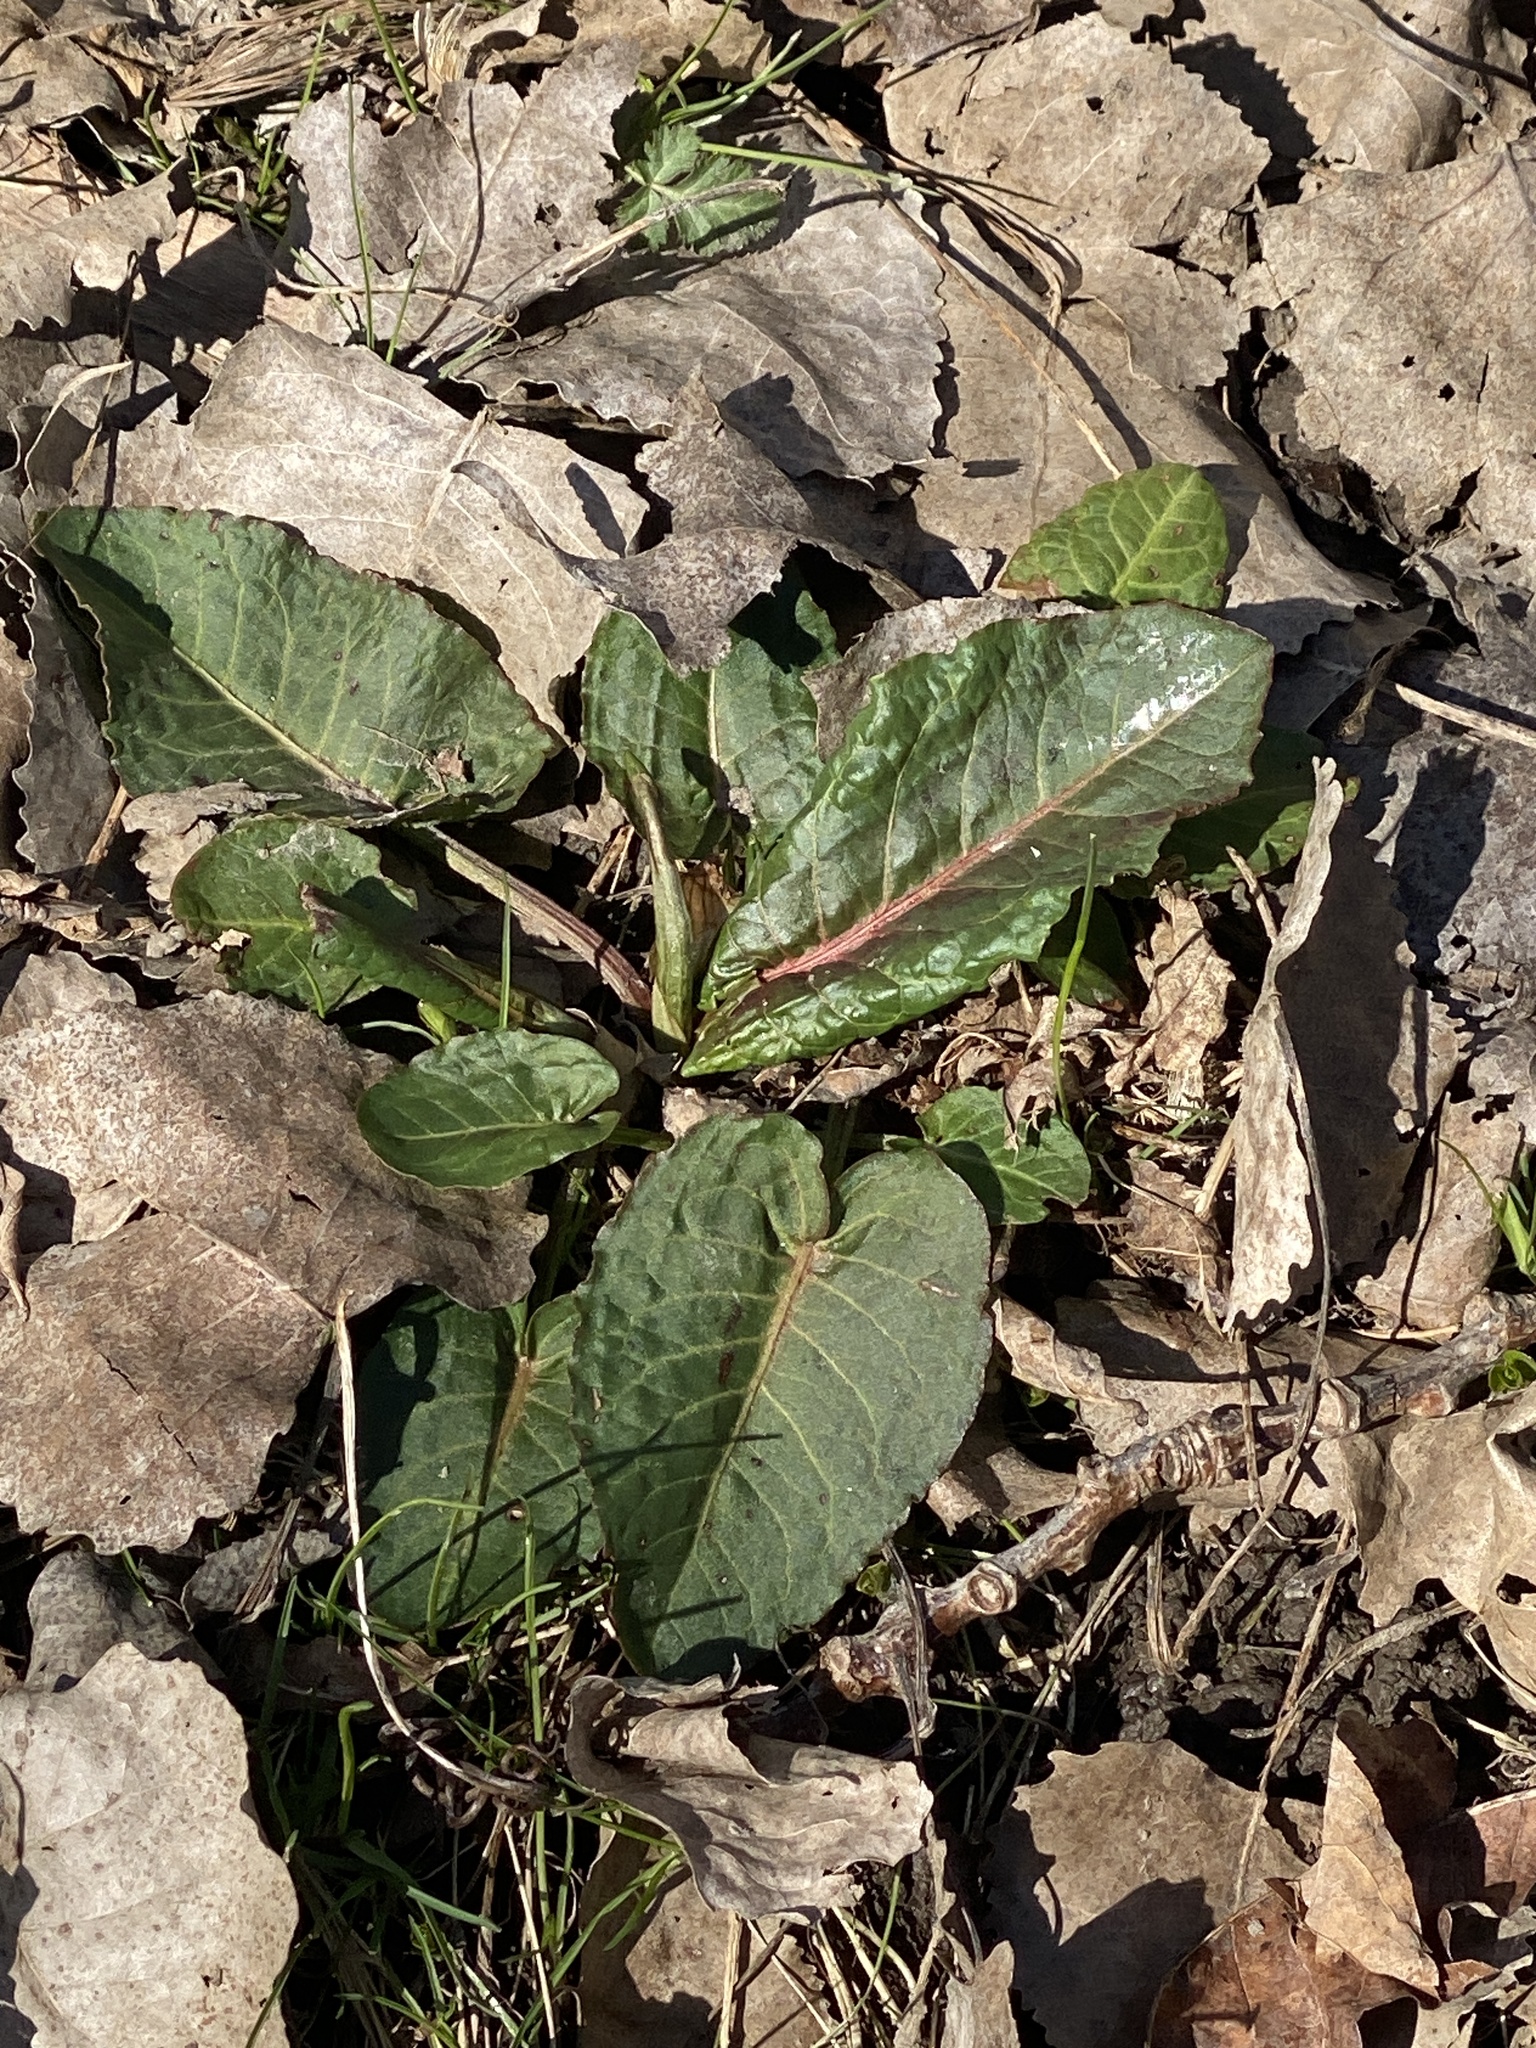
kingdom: Plantae
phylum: Tracheophyta
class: Magnoliopsida
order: Caryophyllales
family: Polygonaceae
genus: Rumex
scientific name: Rumex obtusifolius
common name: Bitter dock
